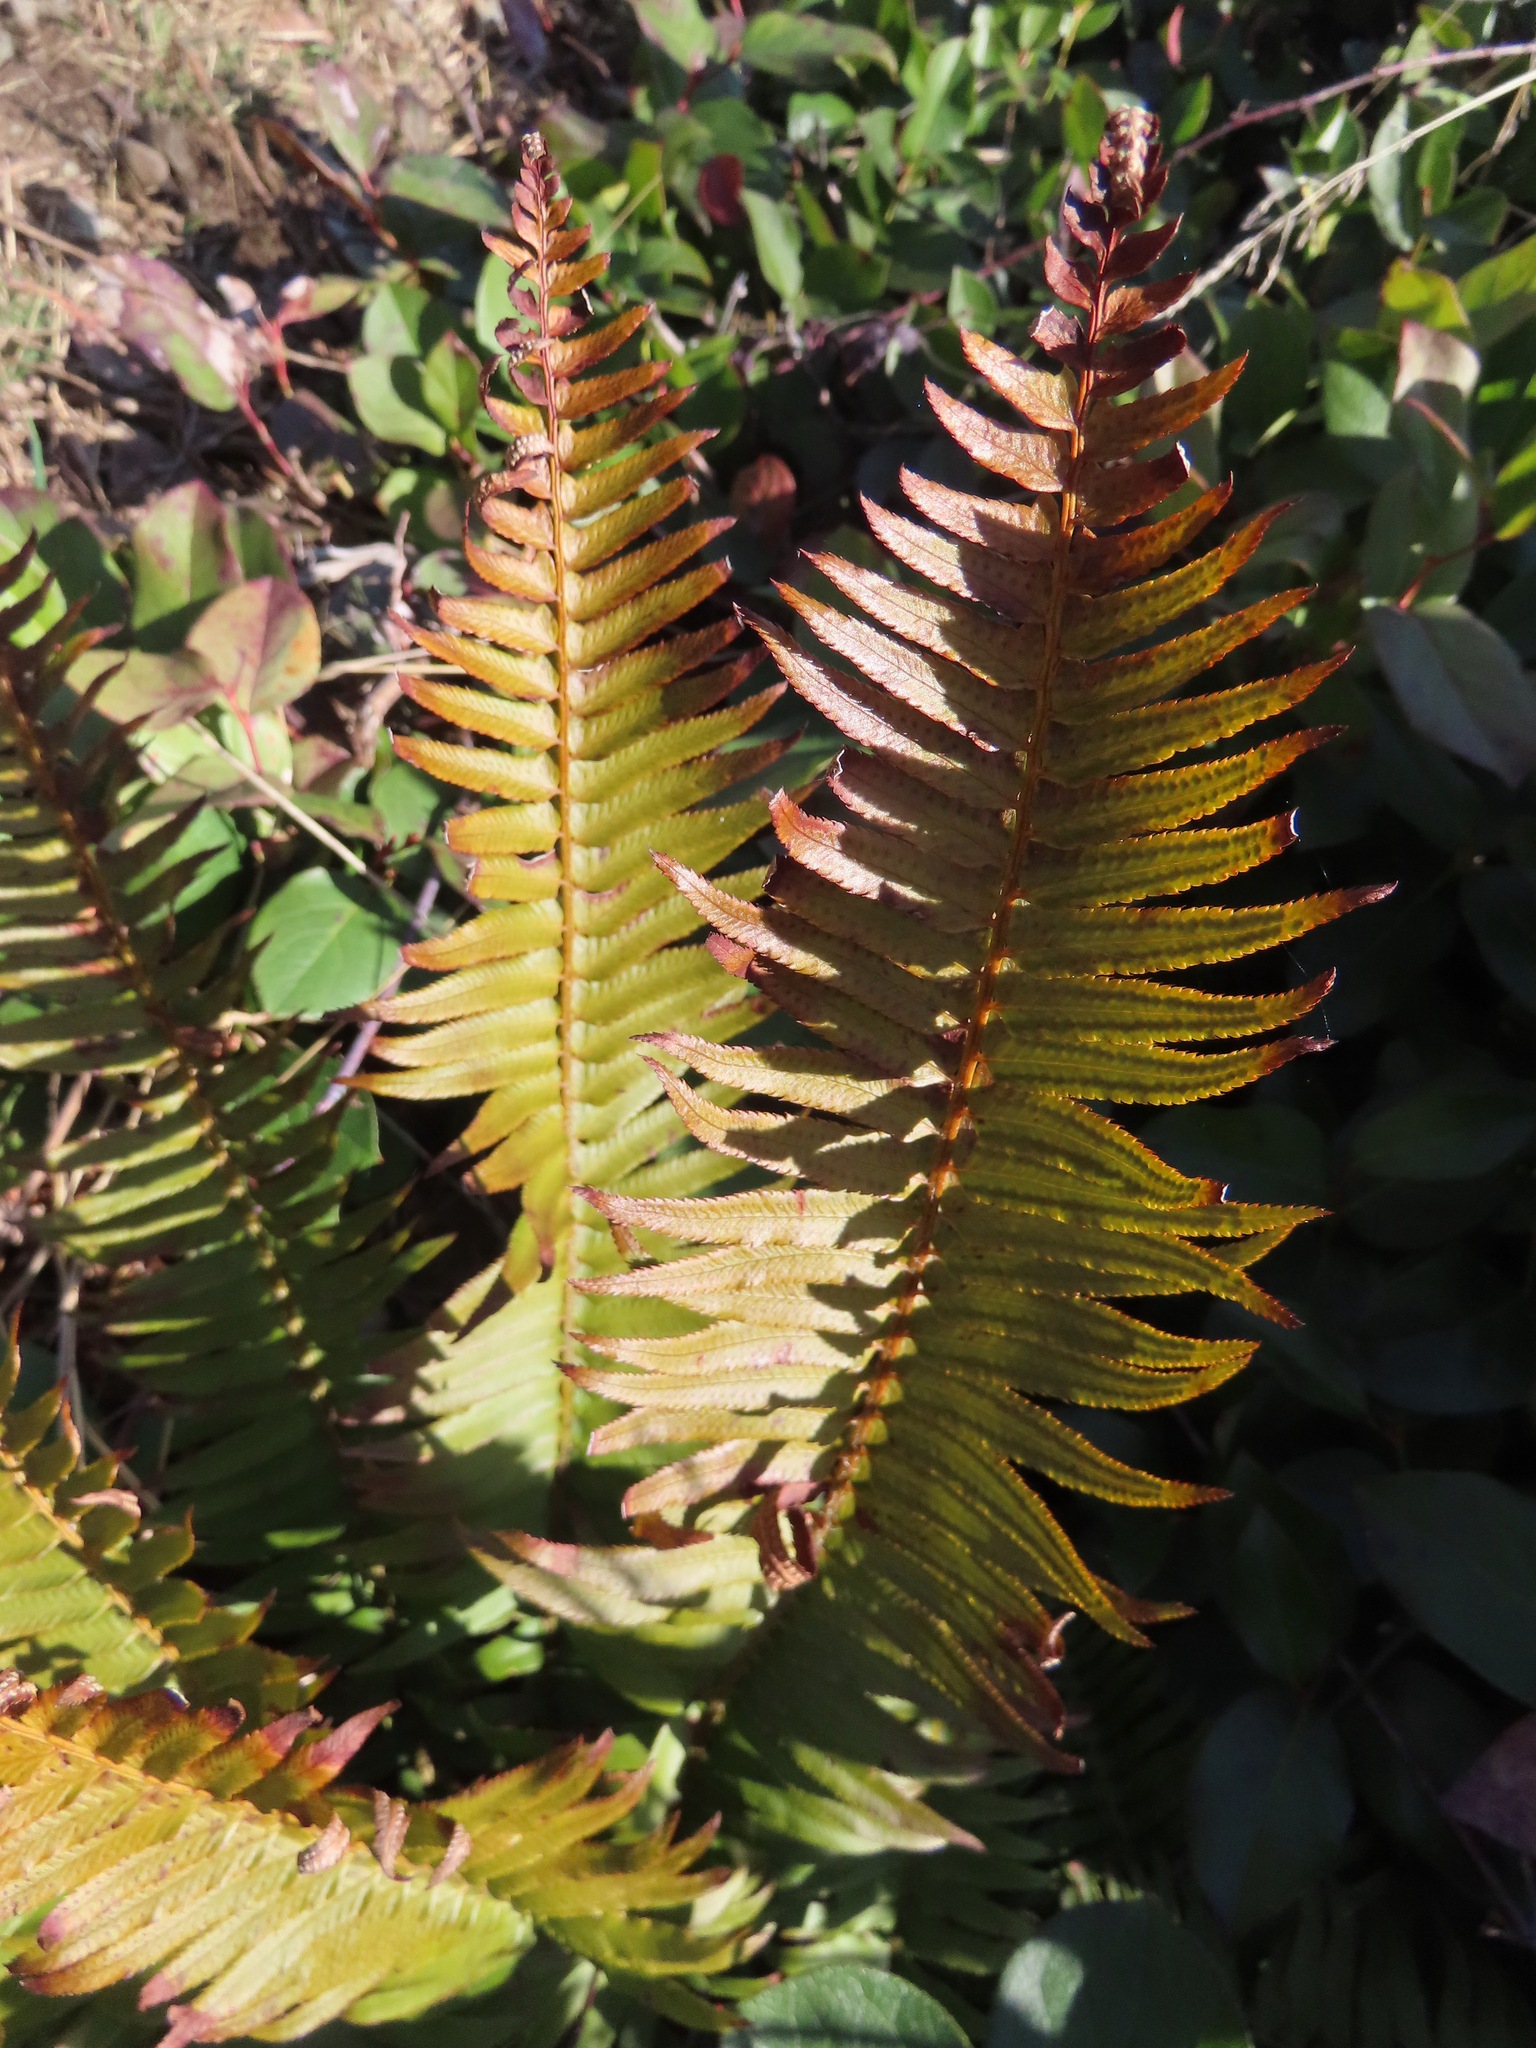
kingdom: Plantae
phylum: Tracheophyta
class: Polypodiopsida
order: Polypodiales
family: Dryopteridaceae
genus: Polystichum
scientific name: Polystichum munitum
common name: Western sword-fern
